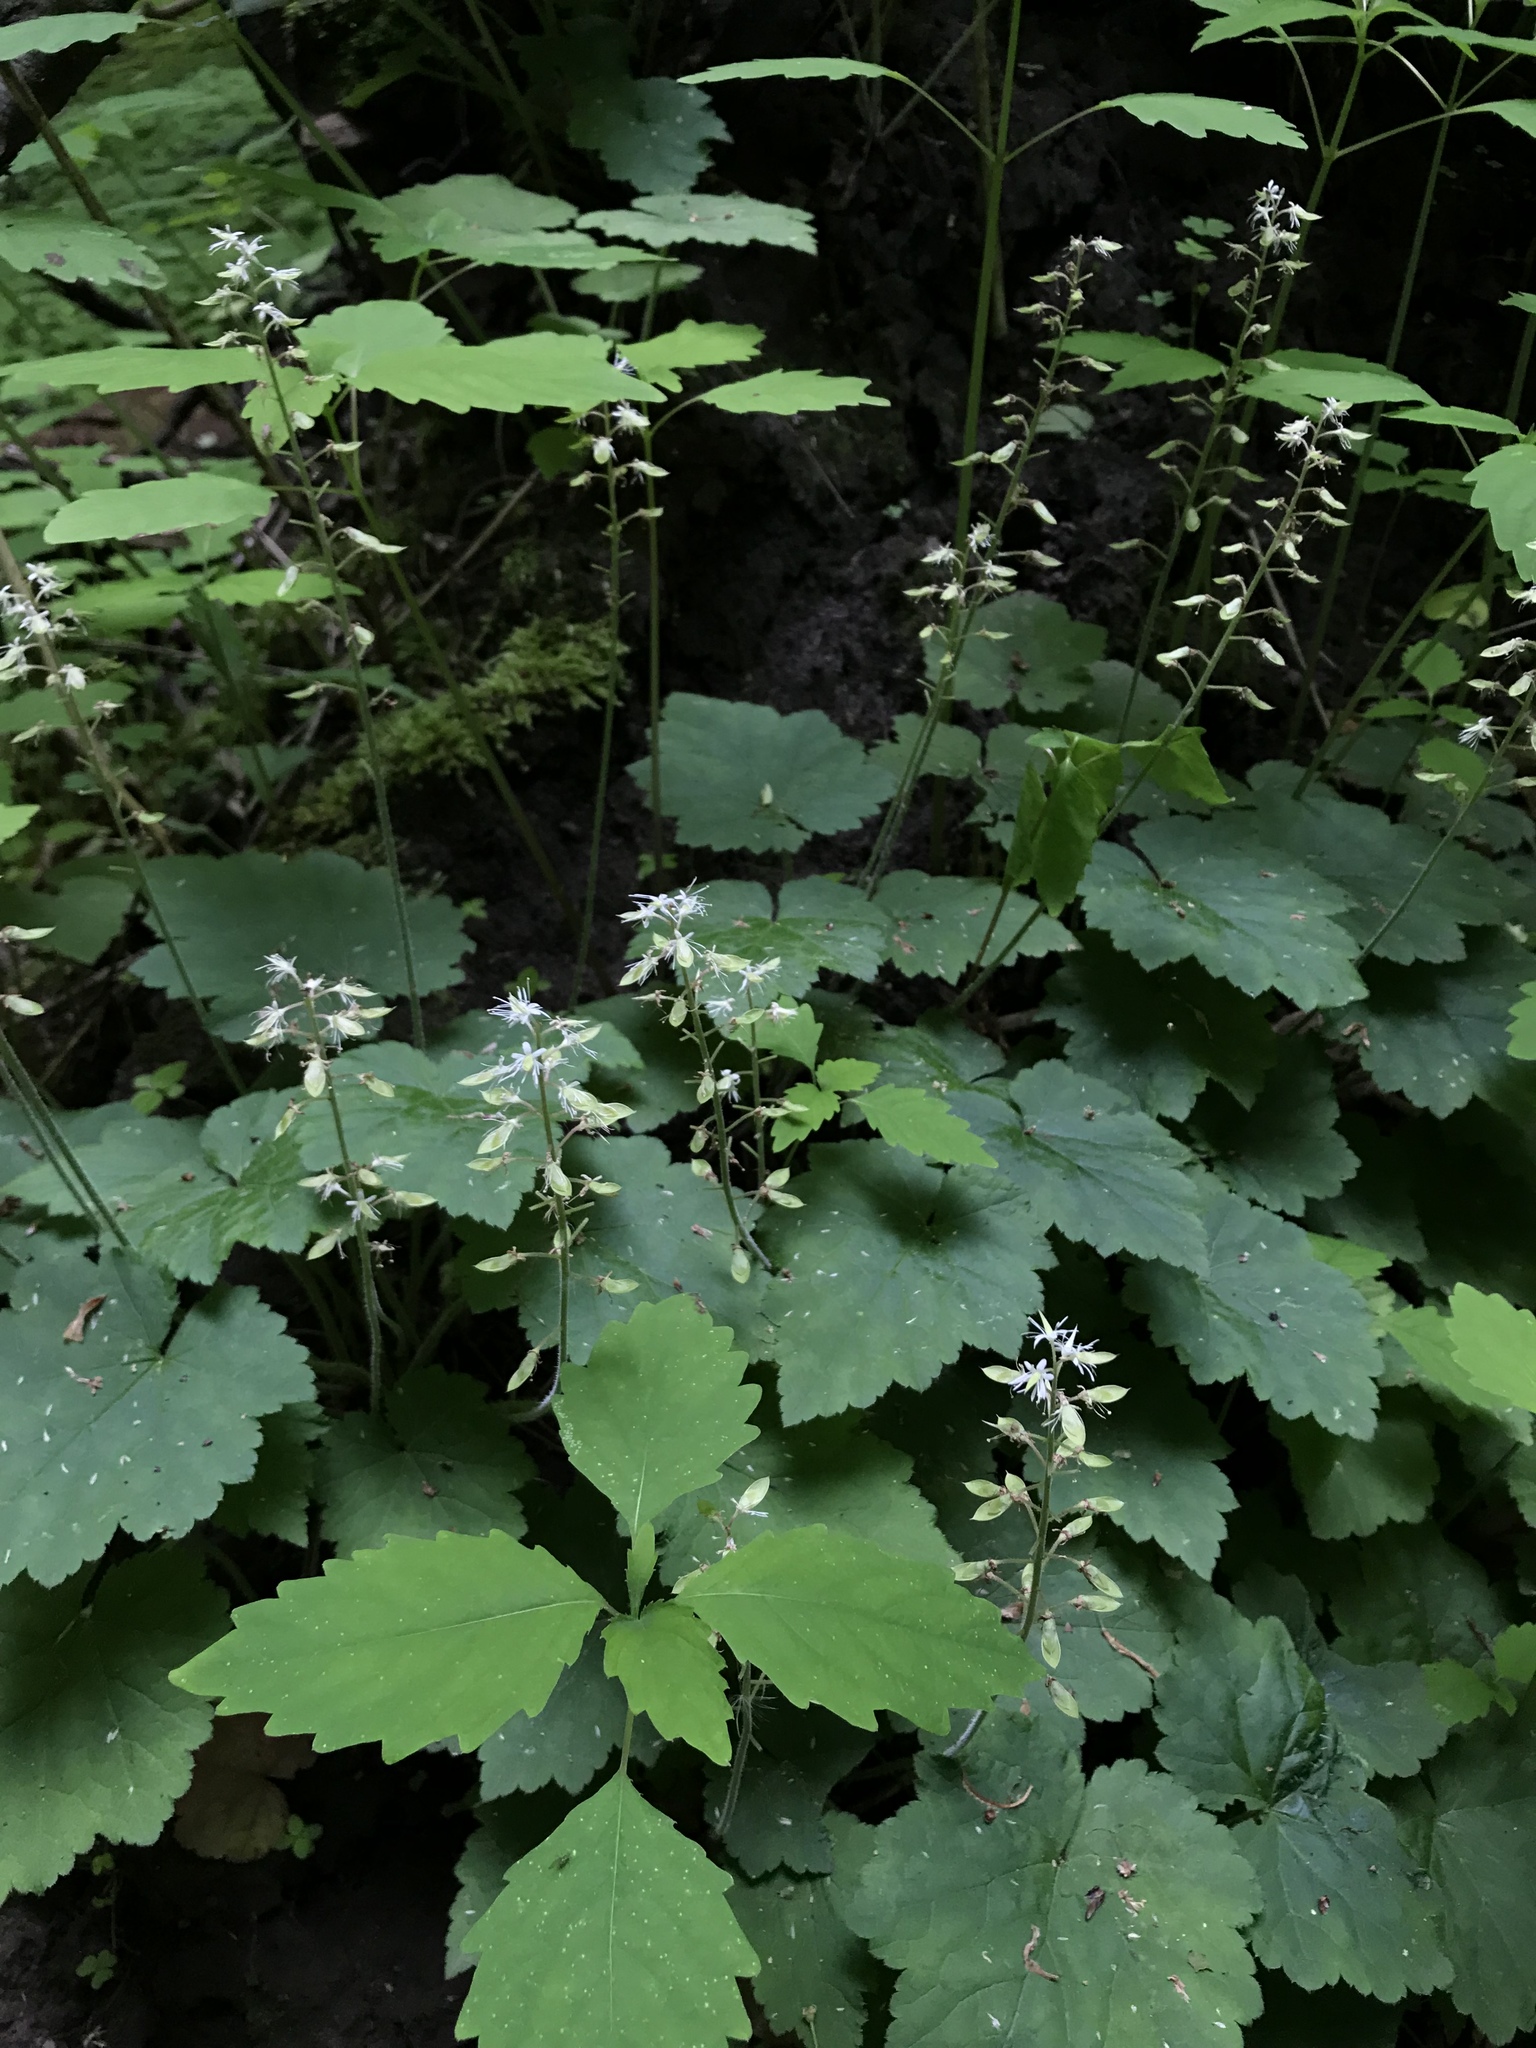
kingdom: Plantae
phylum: Tracheophyta
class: Magnoliopsida
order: Saxifragales
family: Saxifragaceae
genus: Tiarella
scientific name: Tiarella stolonifera
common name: Stoloniferous foamflower
